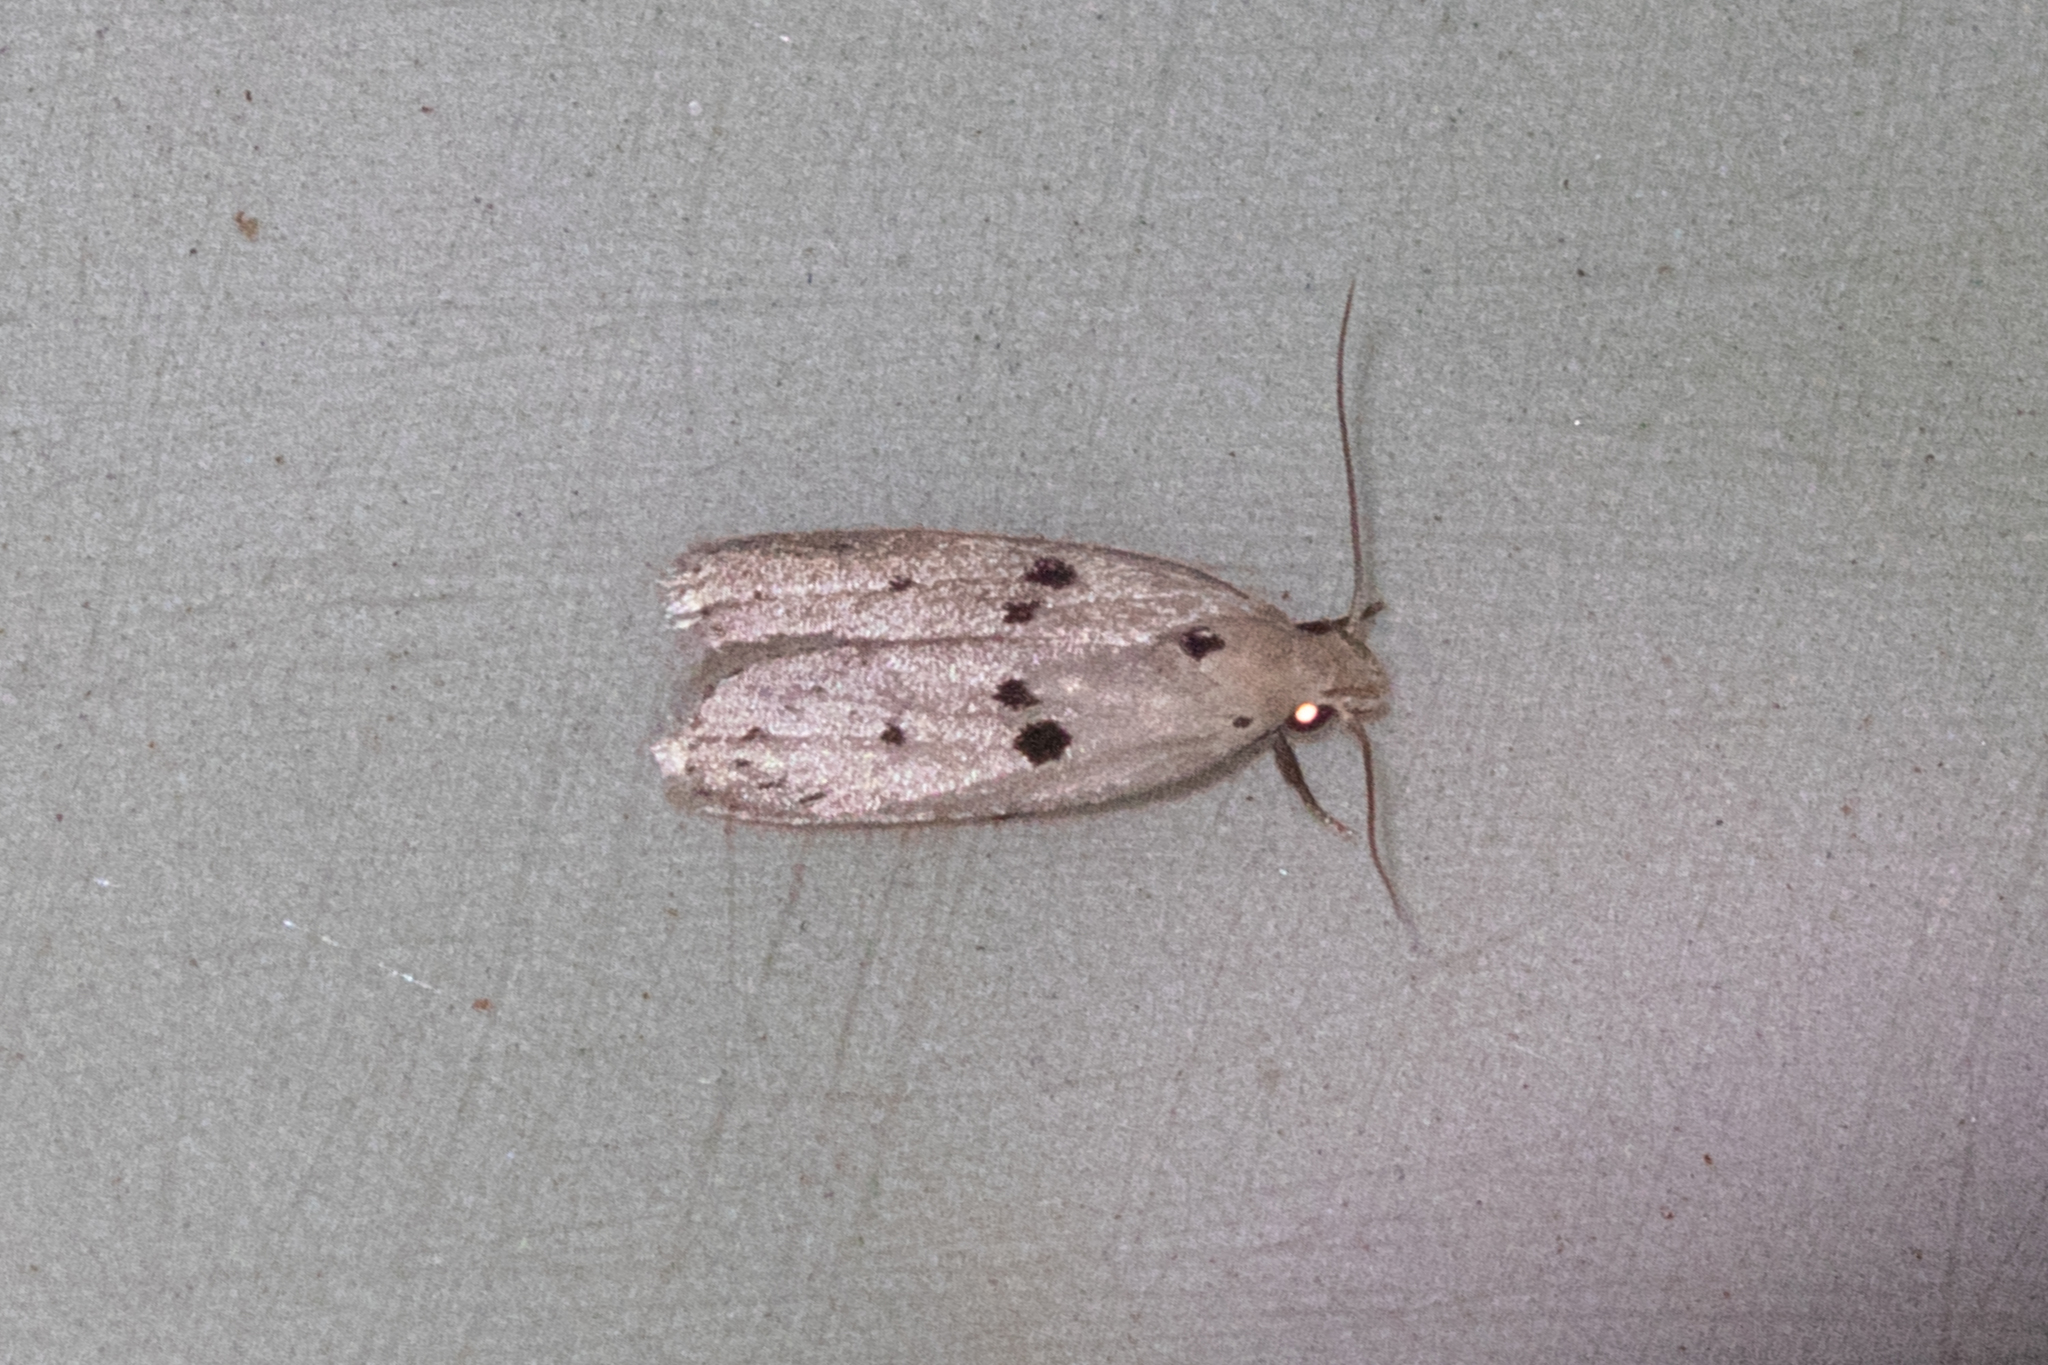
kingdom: Animalia
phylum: Arthropoda
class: Insecta
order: Lepidoptera
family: Peleopodidae
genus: Scythropiodes
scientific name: Scythropiodes issikii
